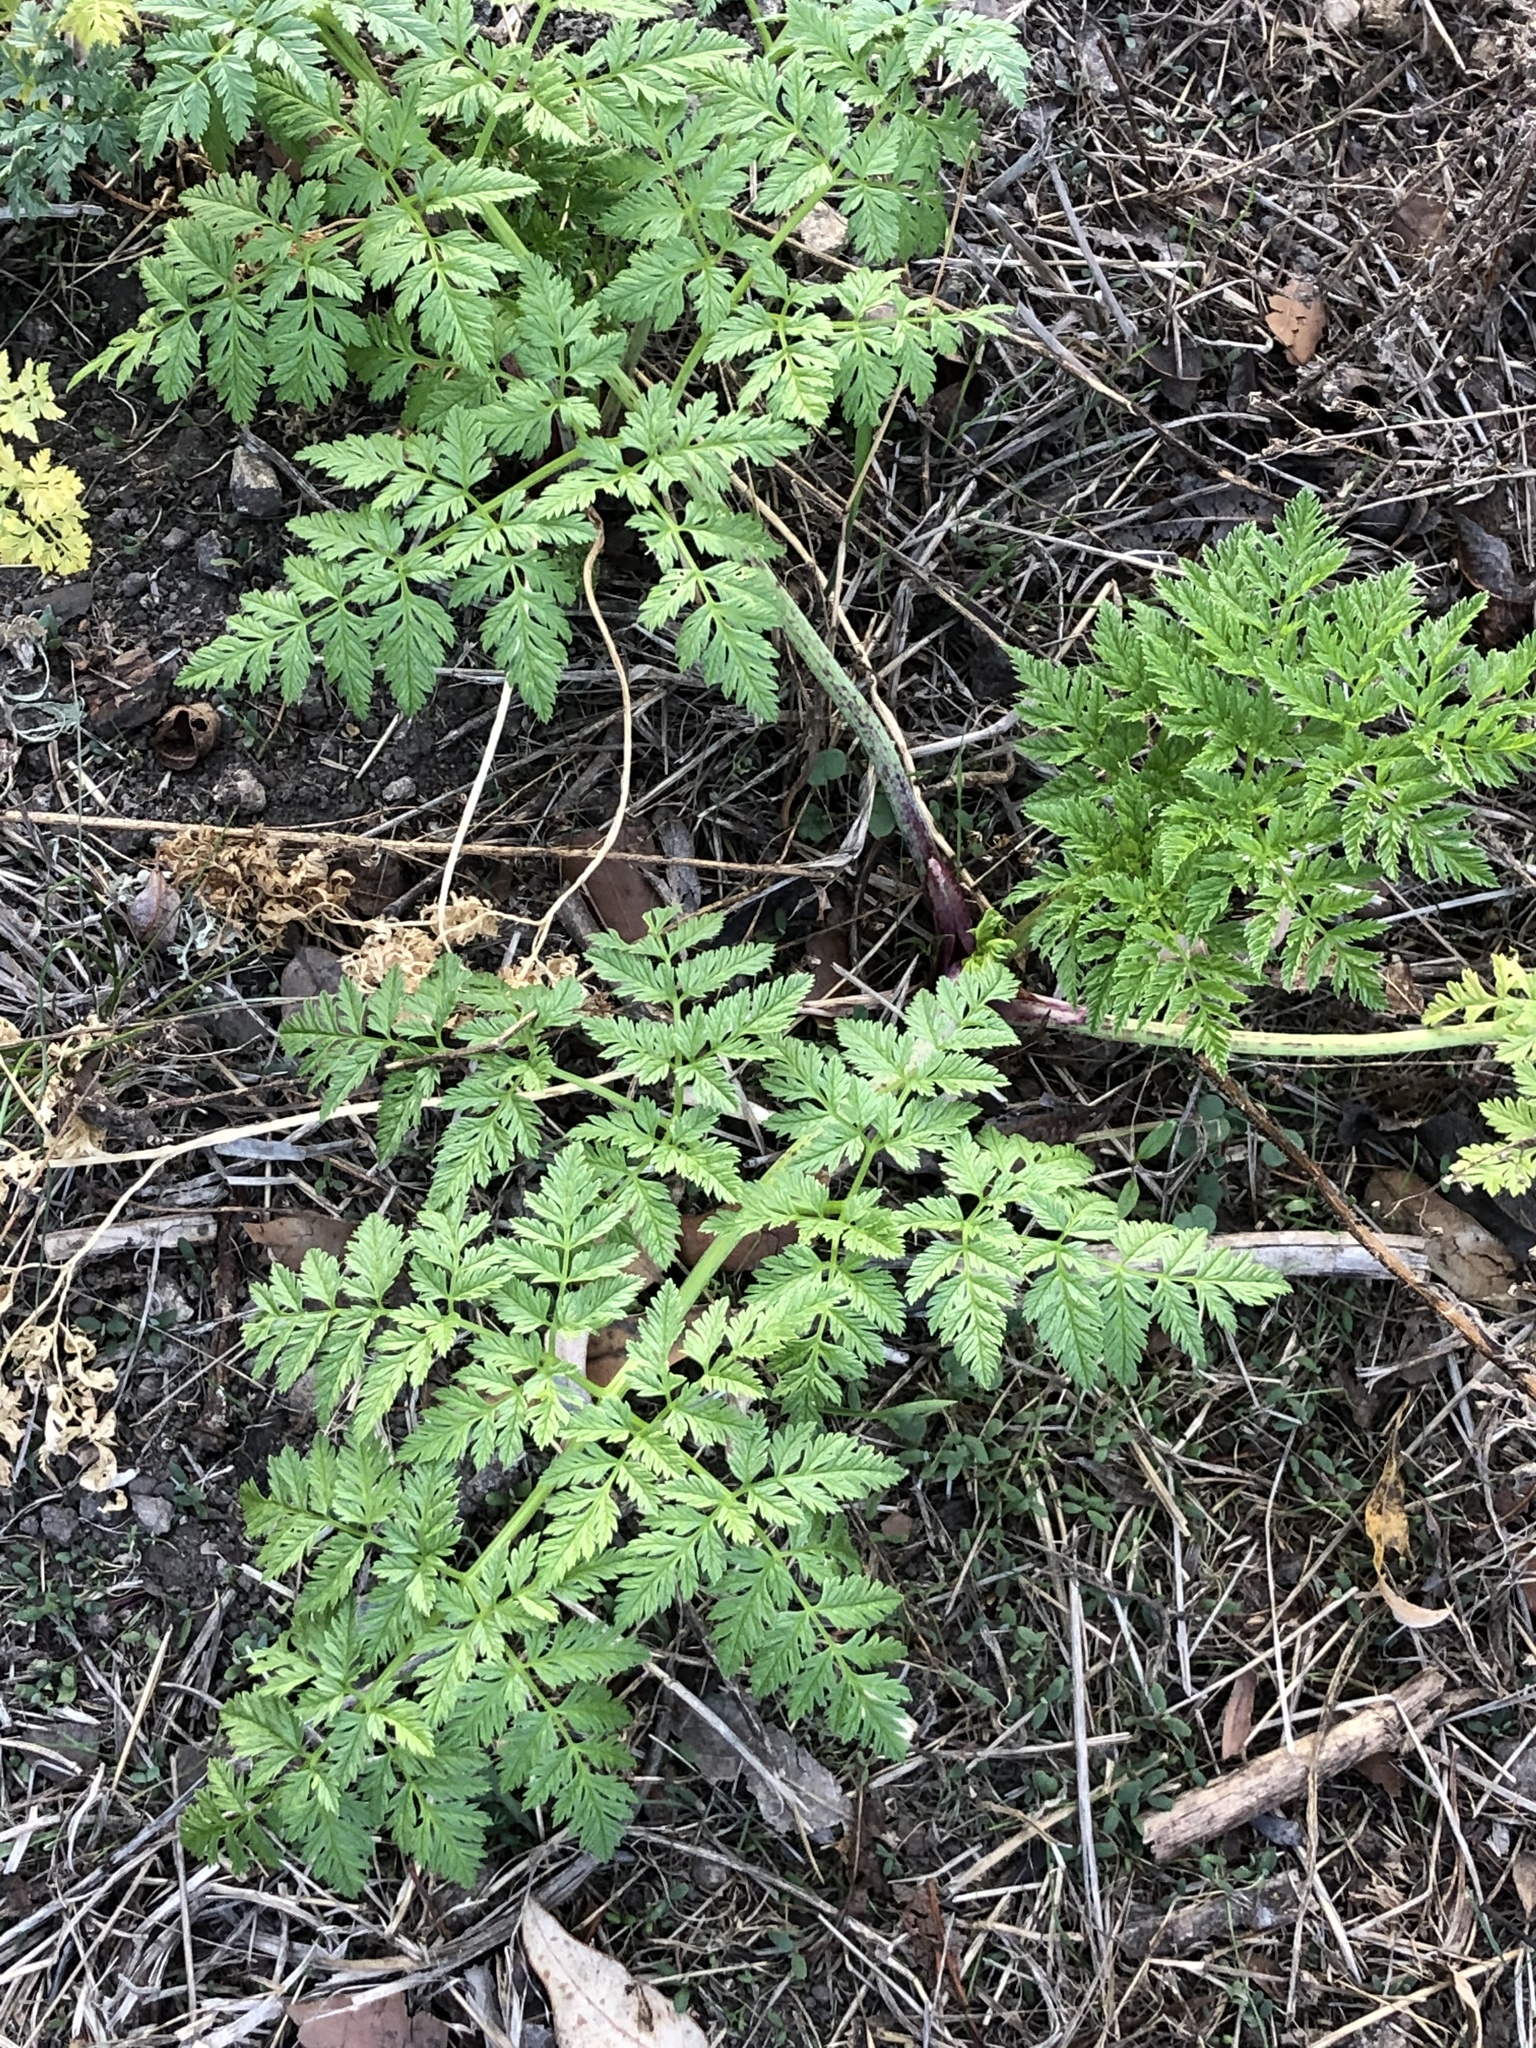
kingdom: Plantae
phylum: Tracheophyta
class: Magnoliopsida
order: Apiales
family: Apiaceae
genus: Conium
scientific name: Conium maculatum
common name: Hemlock
